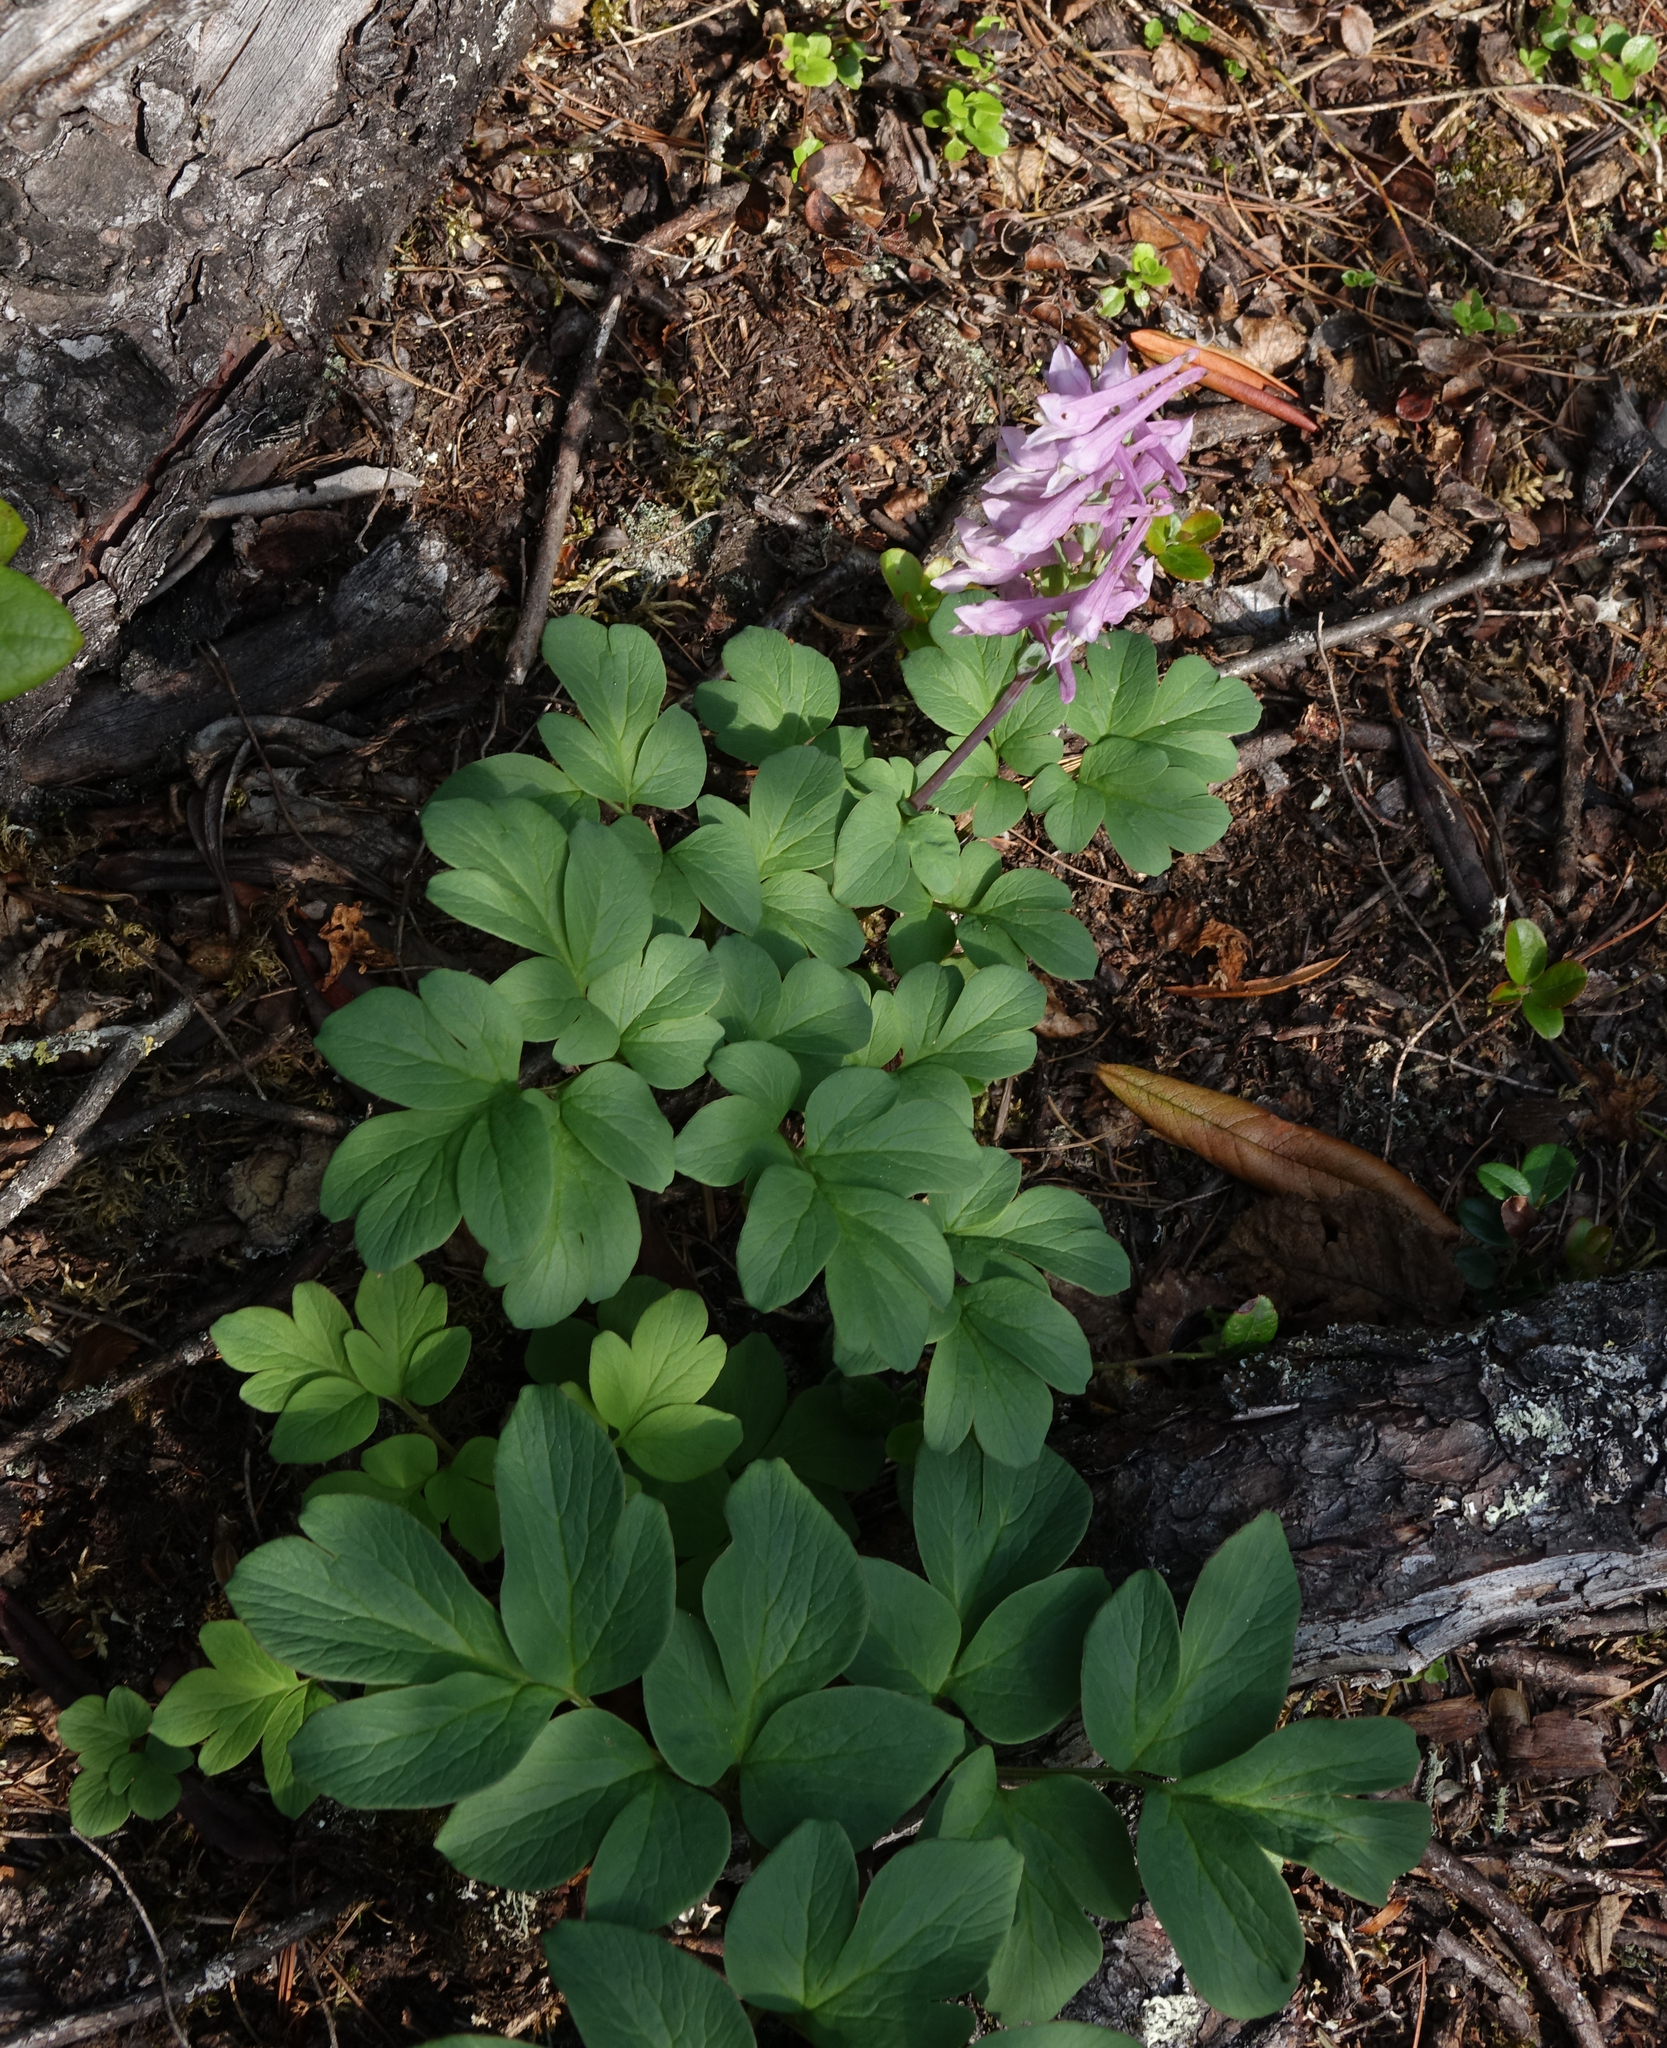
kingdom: Plantae
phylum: Tracheophyta
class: Magnoliopsida
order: Ranunculales
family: Papaveraceae
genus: Corydalis
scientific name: Corydalis paeoniifolia
